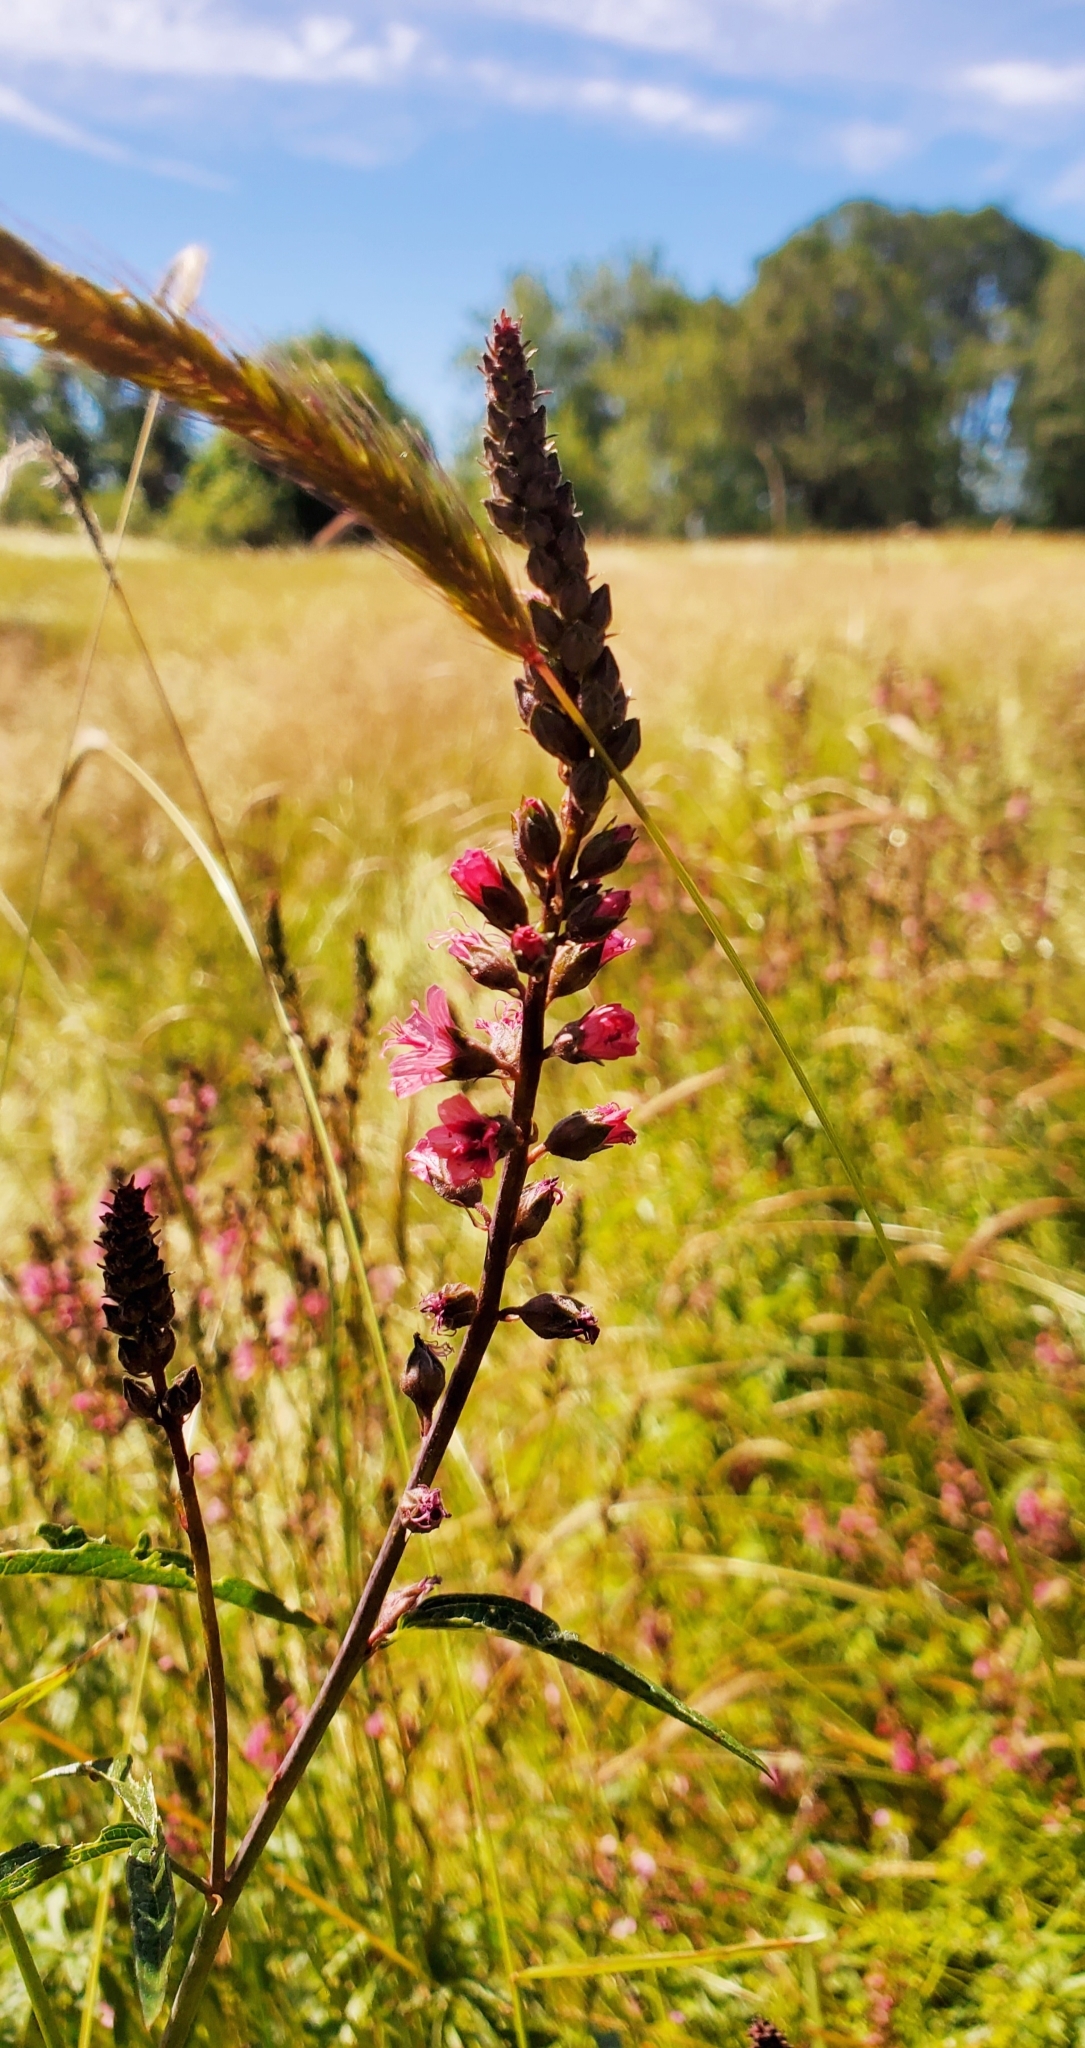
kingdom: Plantae
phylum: Tracheophyta
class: Magnoliopsida
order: Malvales
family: Malvaceae
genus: Sidalcea
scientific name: Sidalcea nelsoniana
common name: Nelson's checker-mallow
